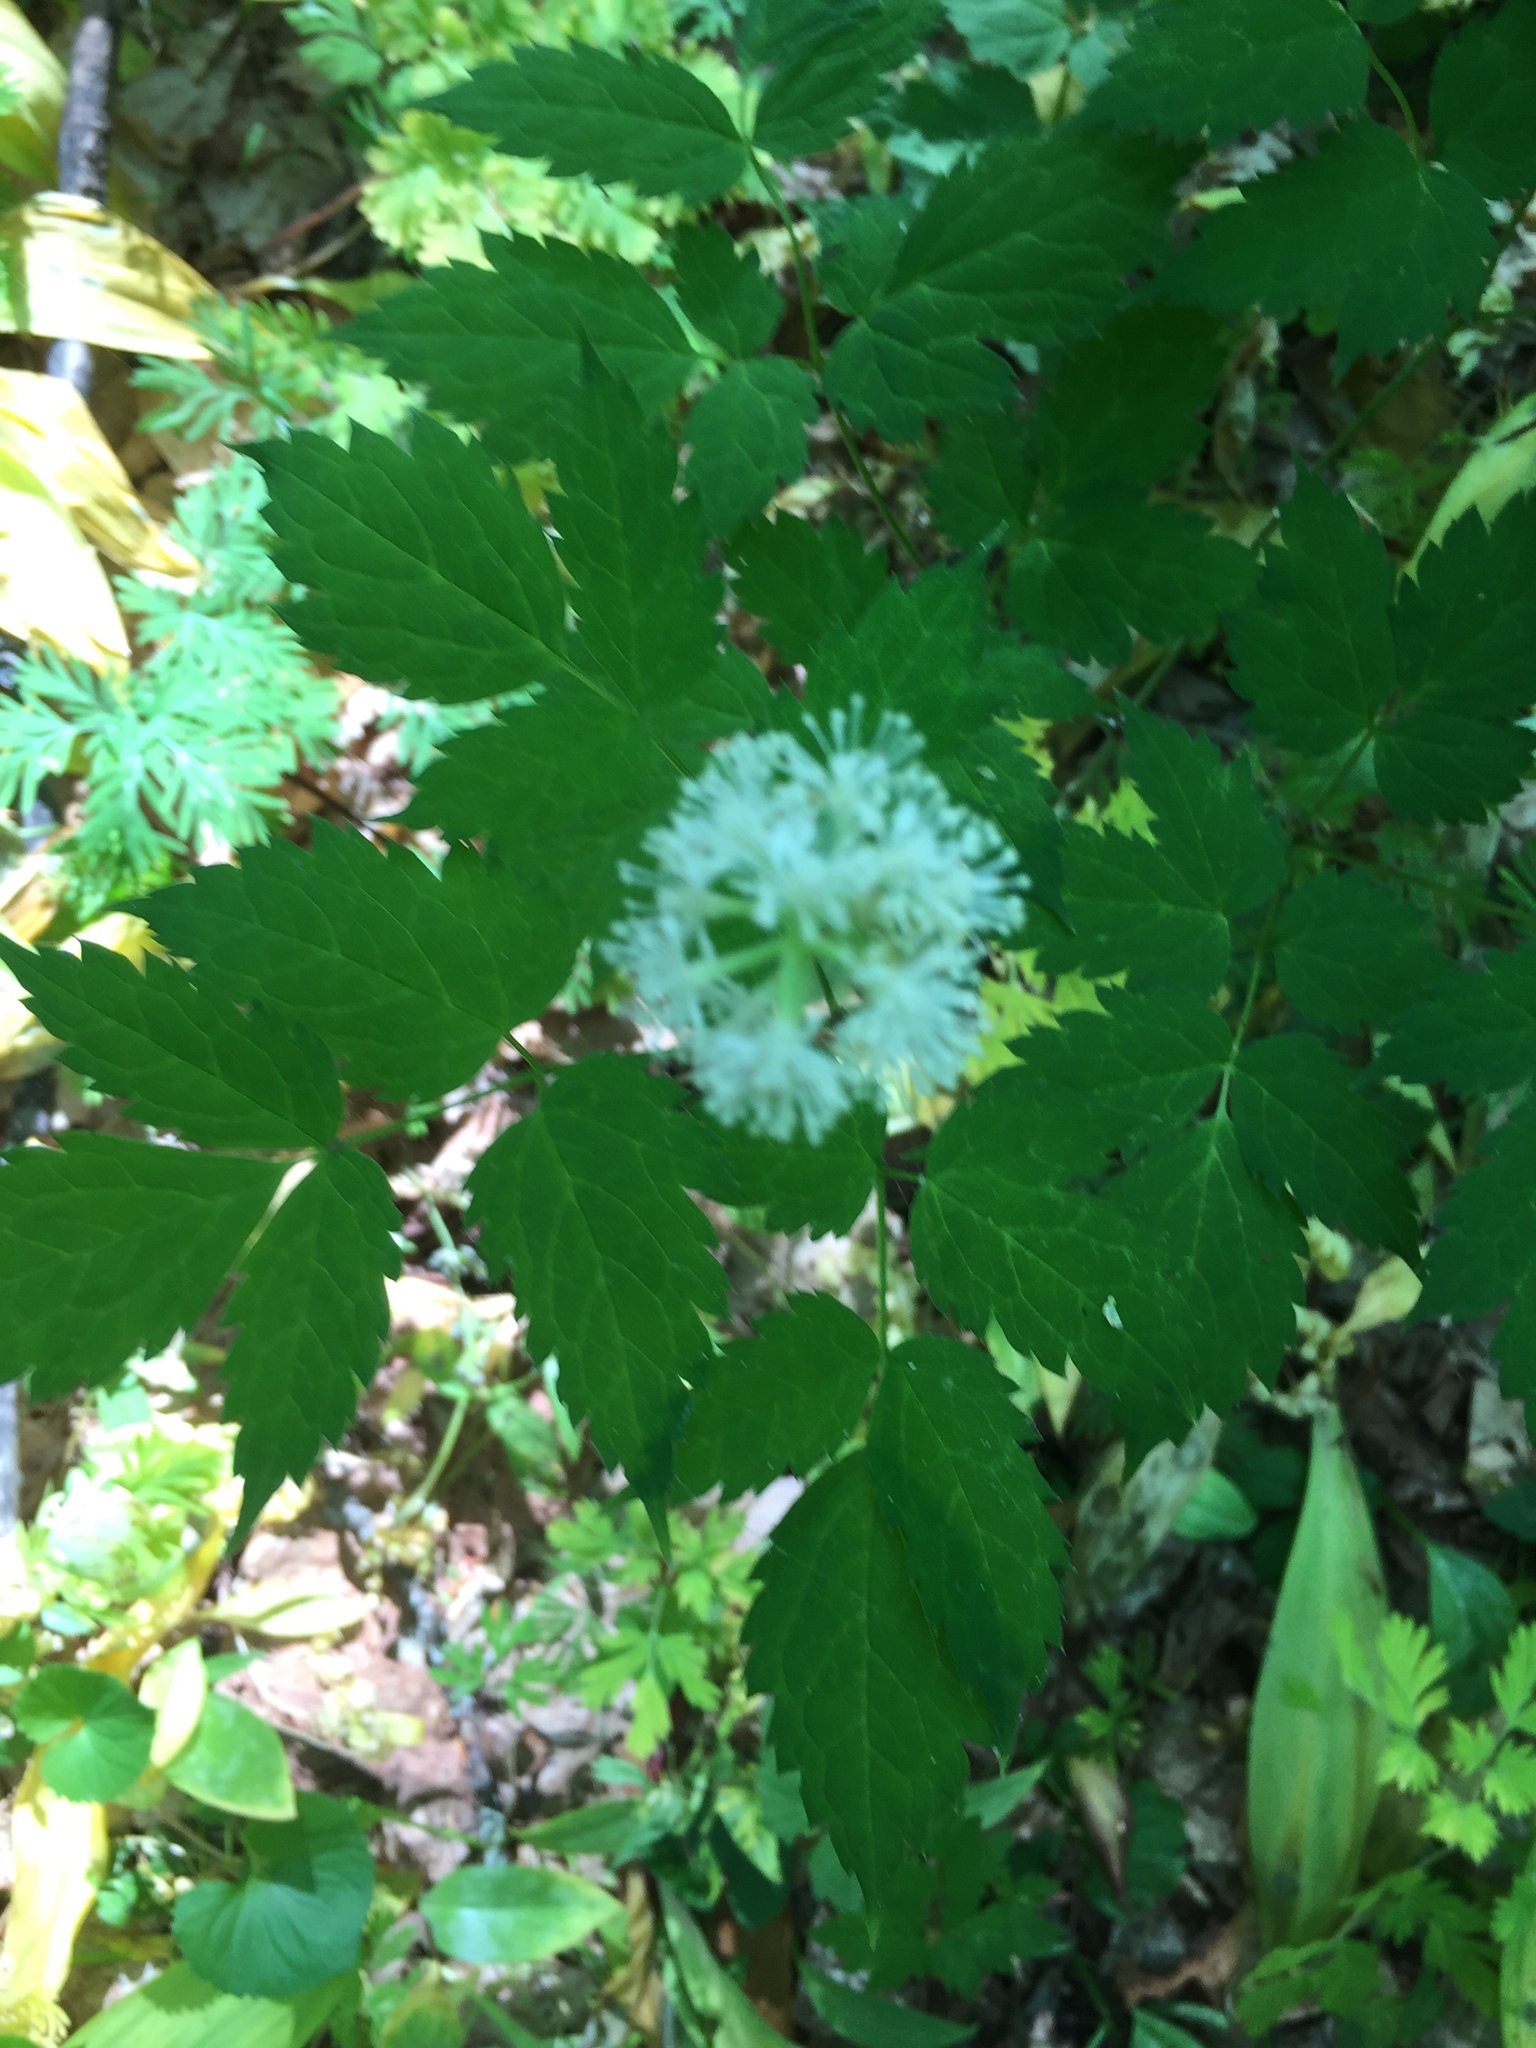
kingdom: Plantae
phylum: Tracheophyta
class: Magnoliopsida
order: Ranunculales
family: Ranunculaceae
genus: Actaea
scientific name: Actaea pachypoda
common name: Doll's-eyes
